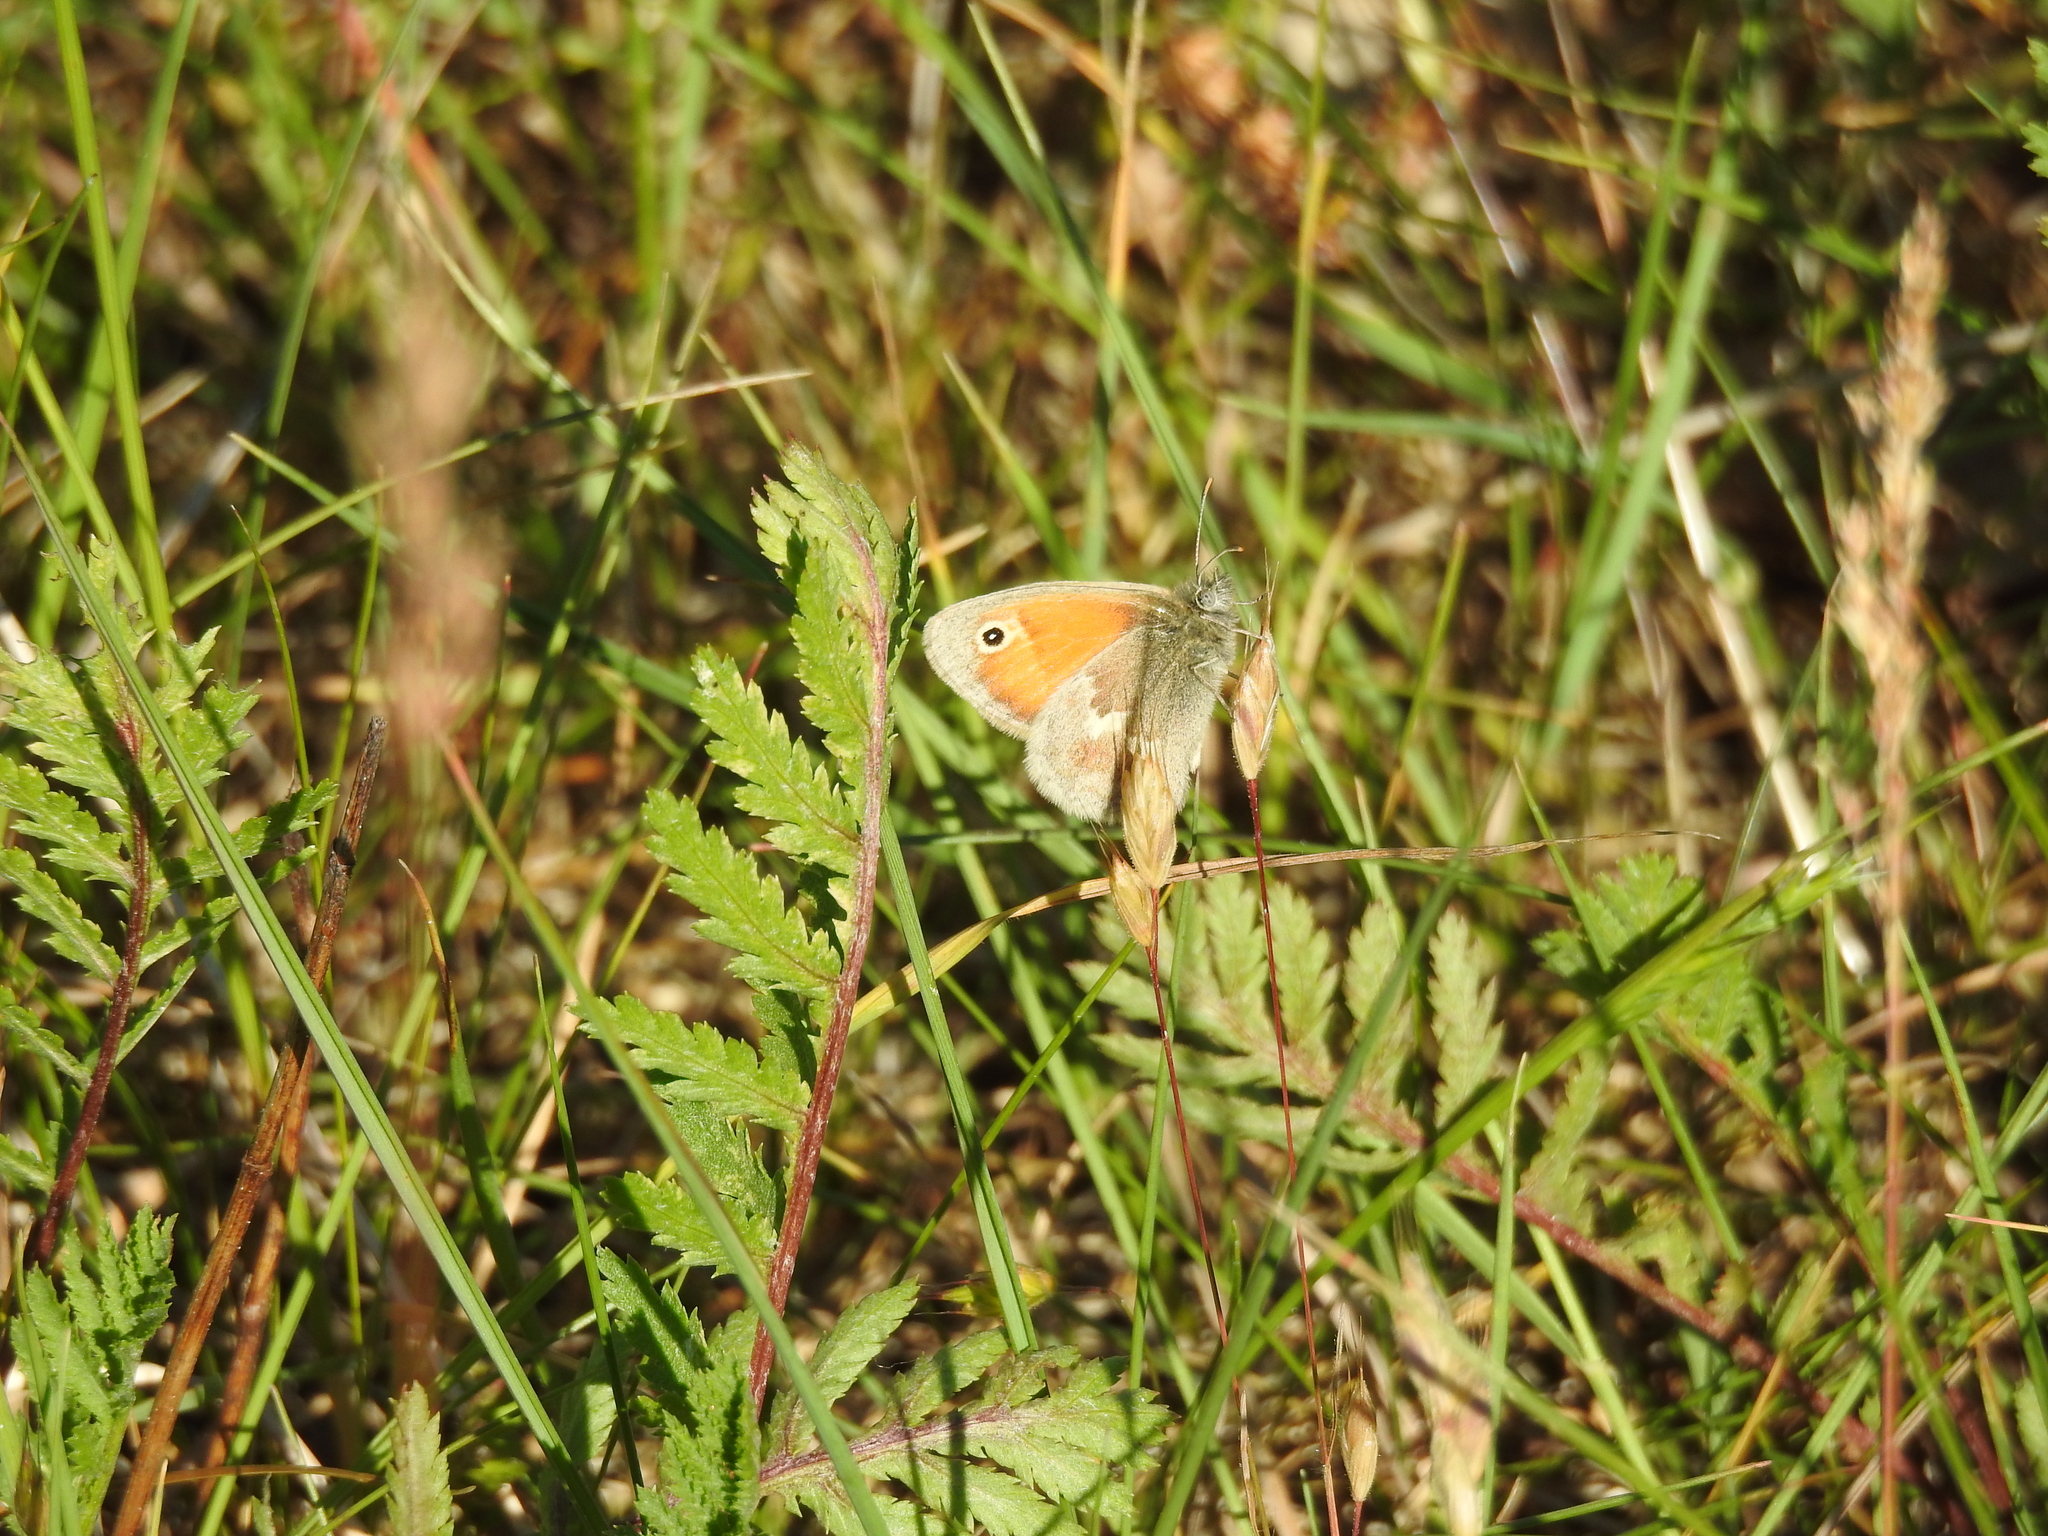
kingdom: Animalia
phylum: Arthropoda
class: Insecta
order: Lepidoptera
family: Nymphalidae
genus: Coenonympha
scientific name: Coenonympha pamphilus
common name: Small heath
